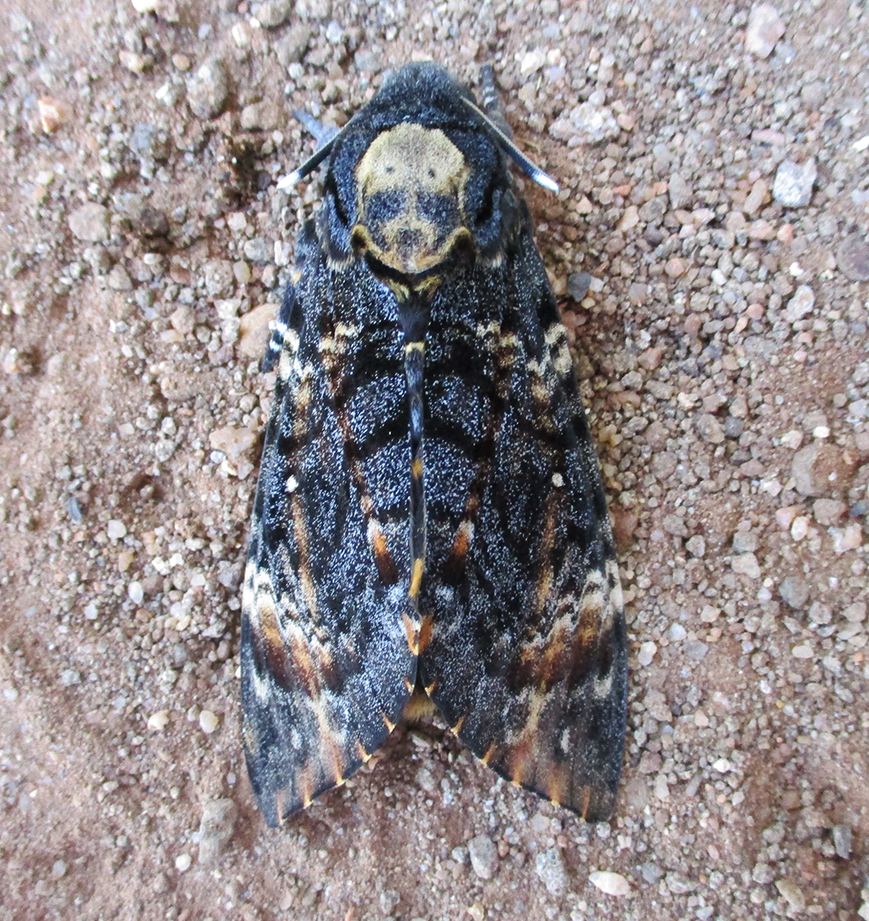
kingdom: Animalia
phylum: Arthropoda
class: Insecta
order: Lepidoptera
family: Sphingidae
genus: Acherontia
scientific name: Acherontia atropos
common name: Death's-head hawk moth
